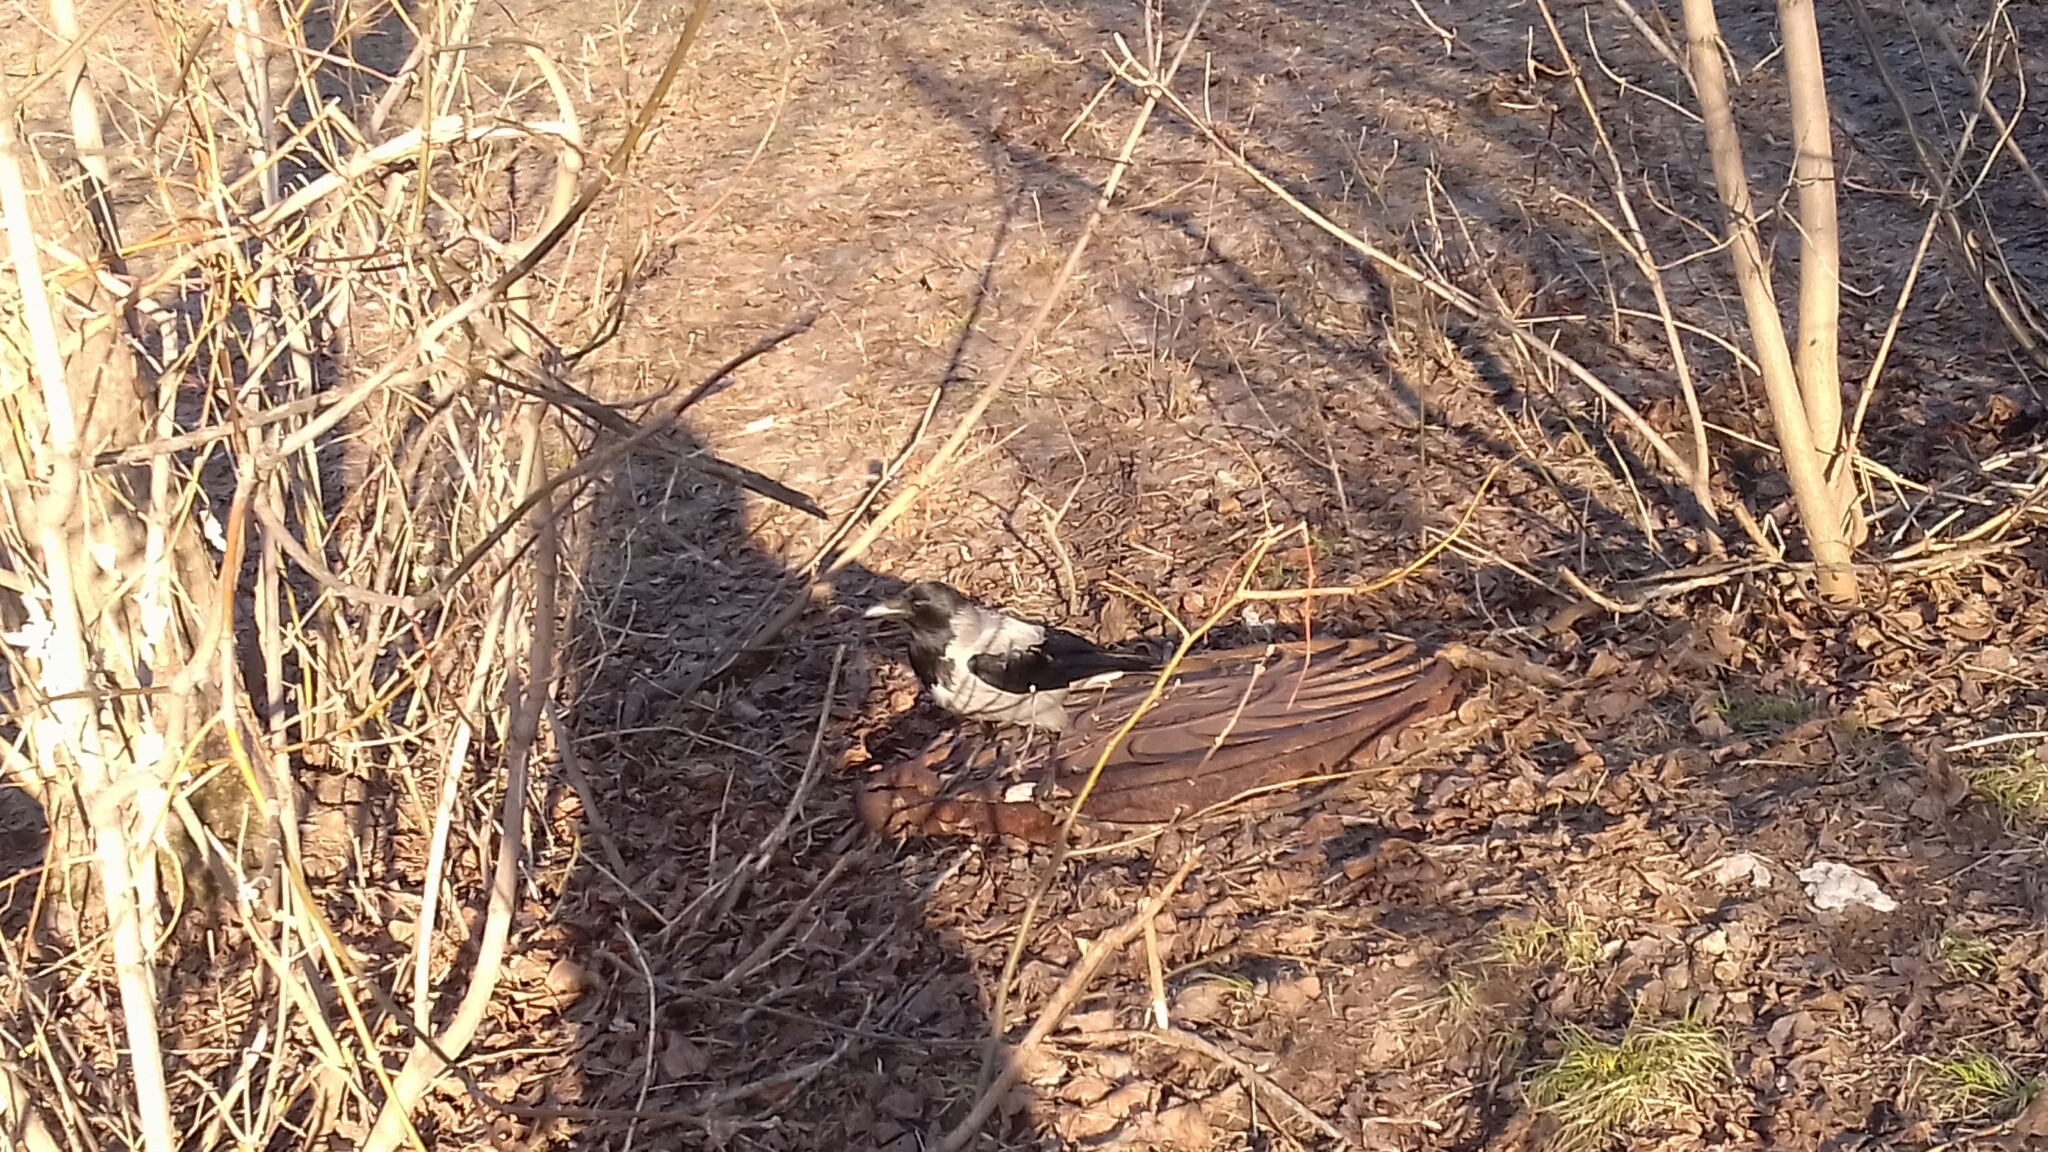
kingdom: Animalia
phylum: Chordata
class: Aves
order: Passeriformes
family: Corvidae
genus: Corvus
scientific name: Corvus cornix
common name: Hooded crow
